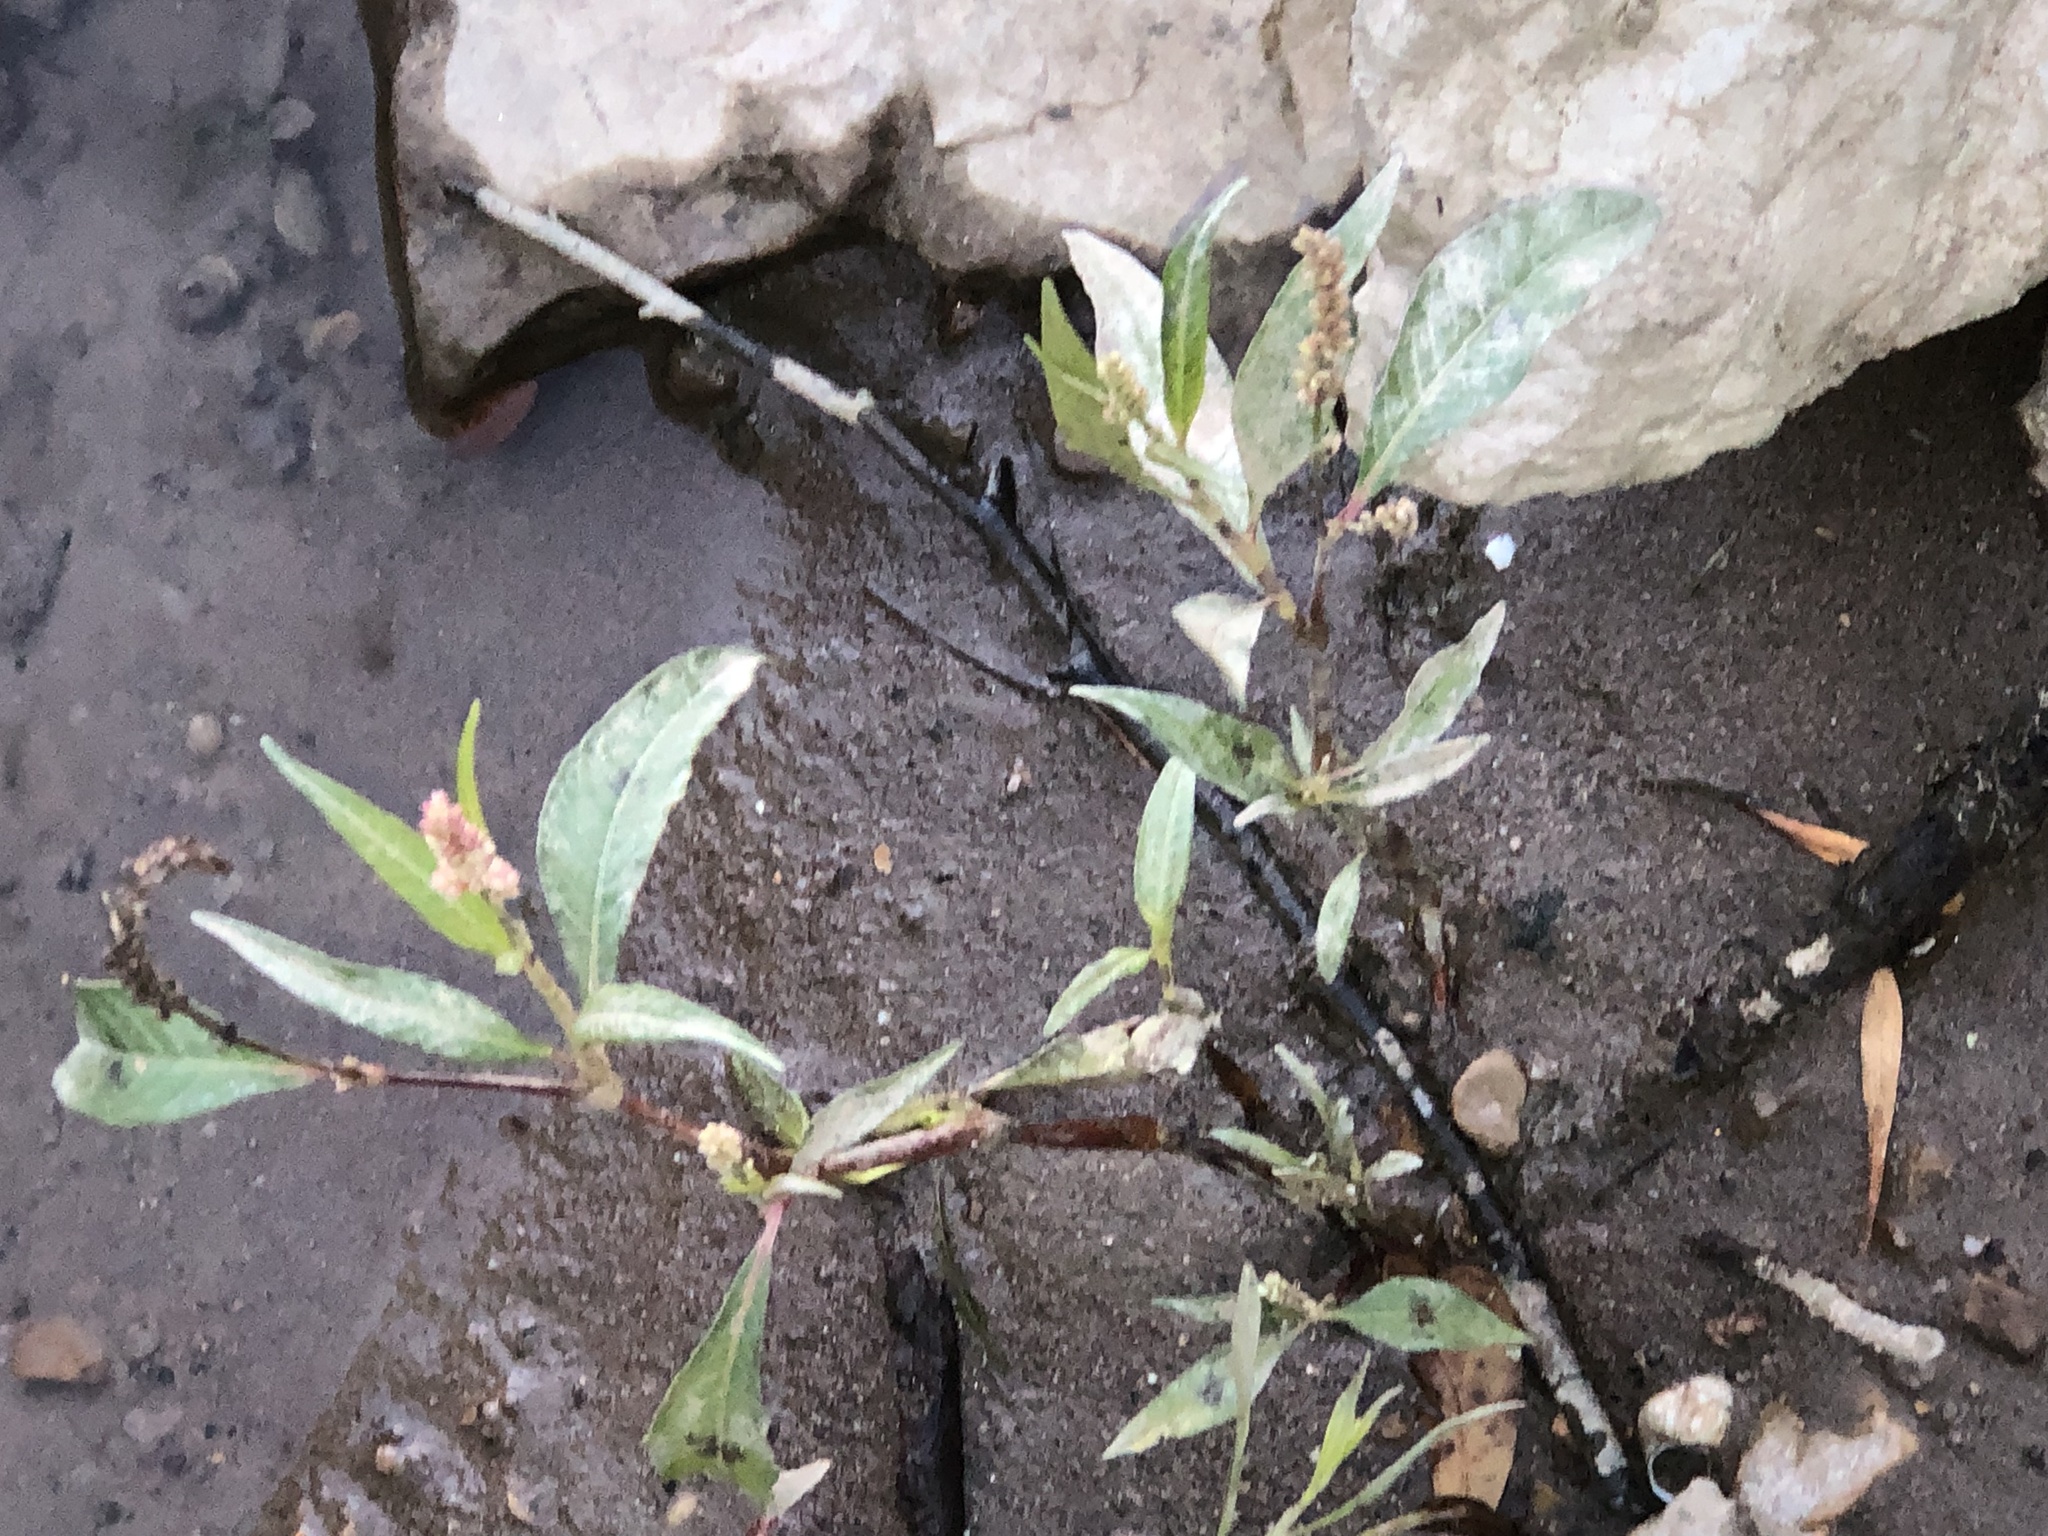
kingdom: Plantae
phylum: Tracheophyta
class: Magnoliopsida
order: Caryophyllales
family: Polygonaceae
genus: Persicaria
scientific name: Persicaria maculosa
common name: Redshank
